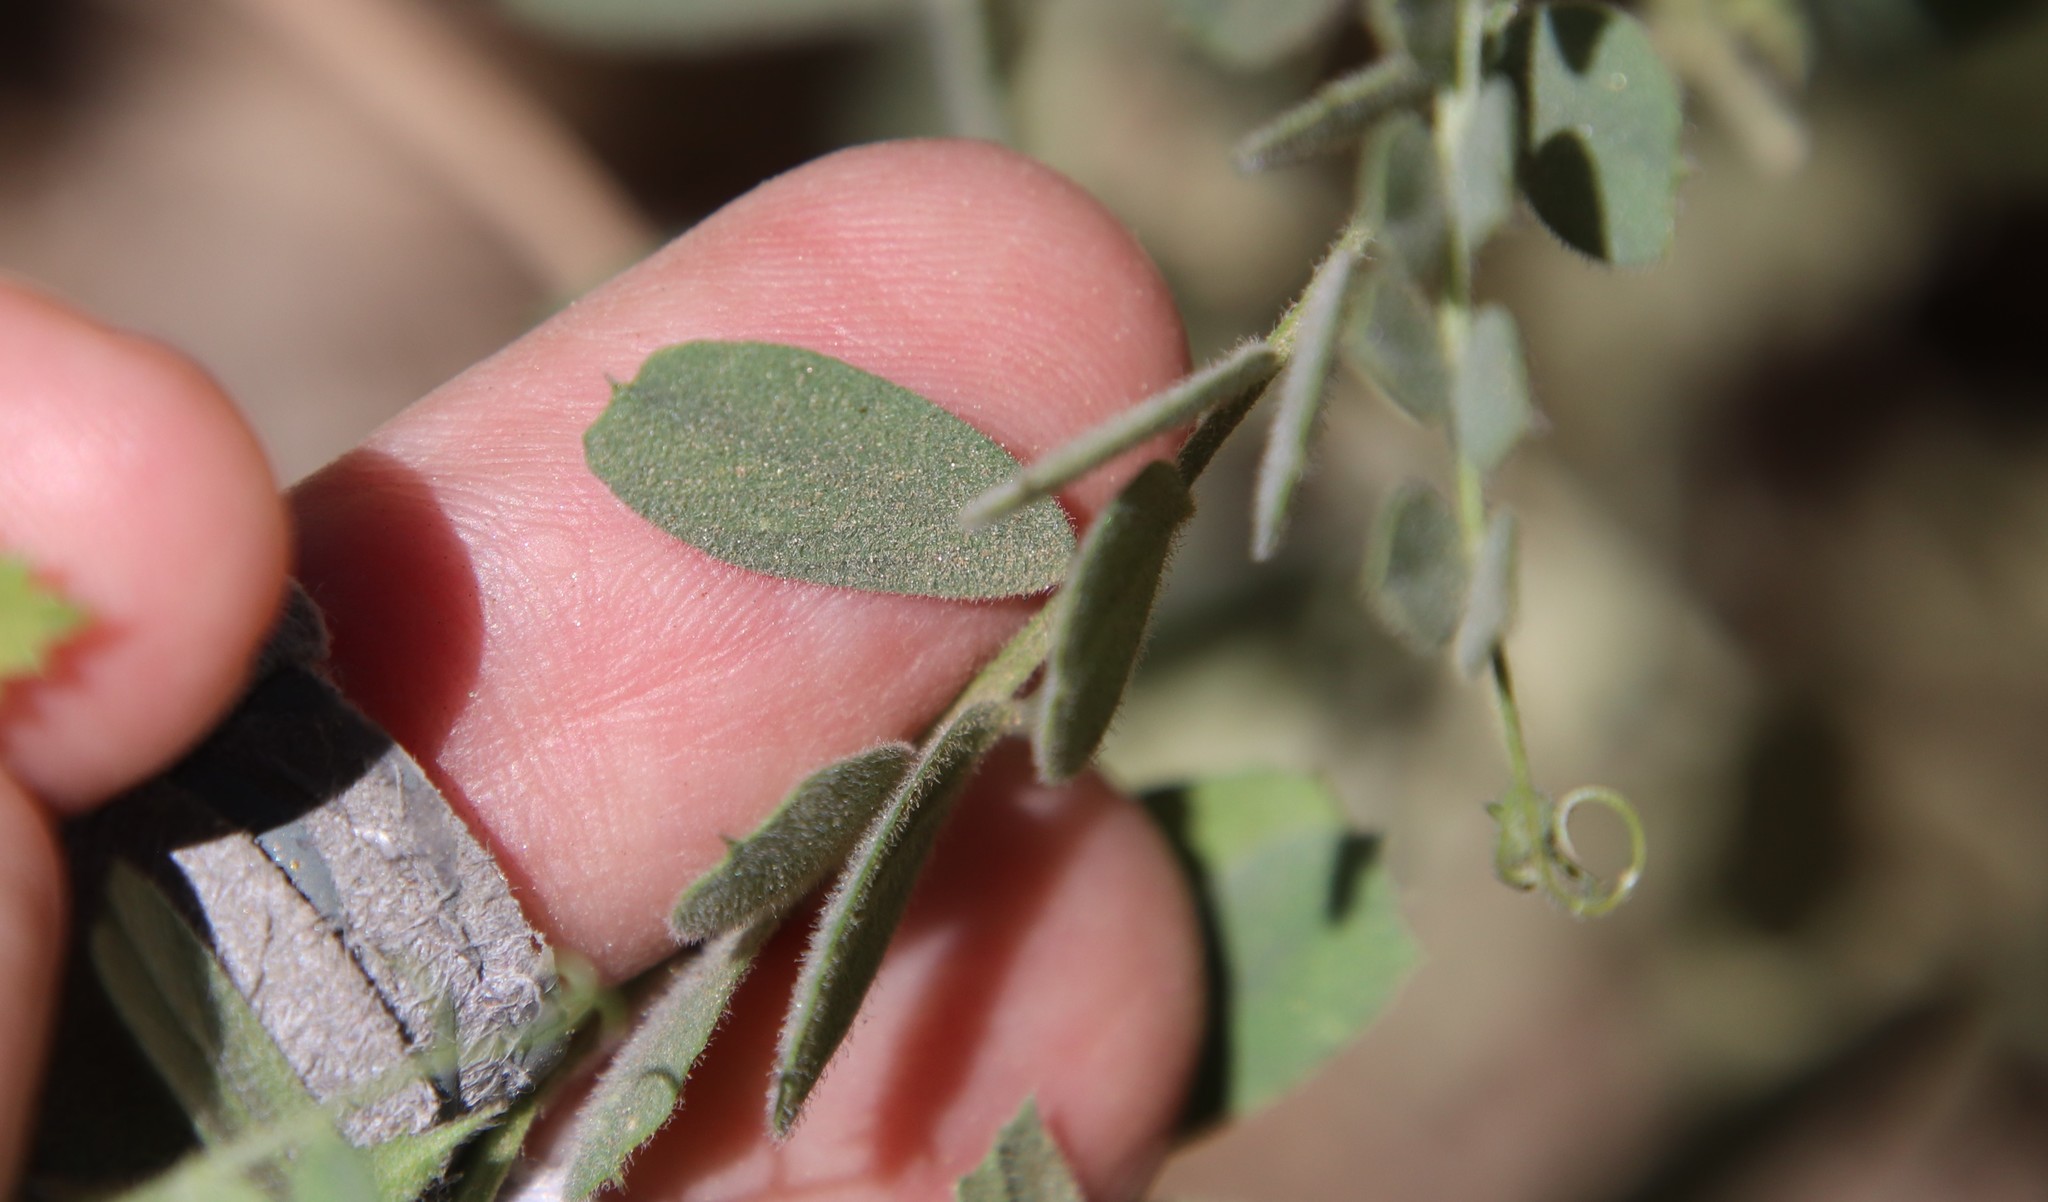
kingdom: Plantae
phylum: Tracheophyta
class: Magnoliopsida
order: Fabales
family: Fabaceae
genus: Vicia
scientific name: Vicia americana
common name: American vetch
